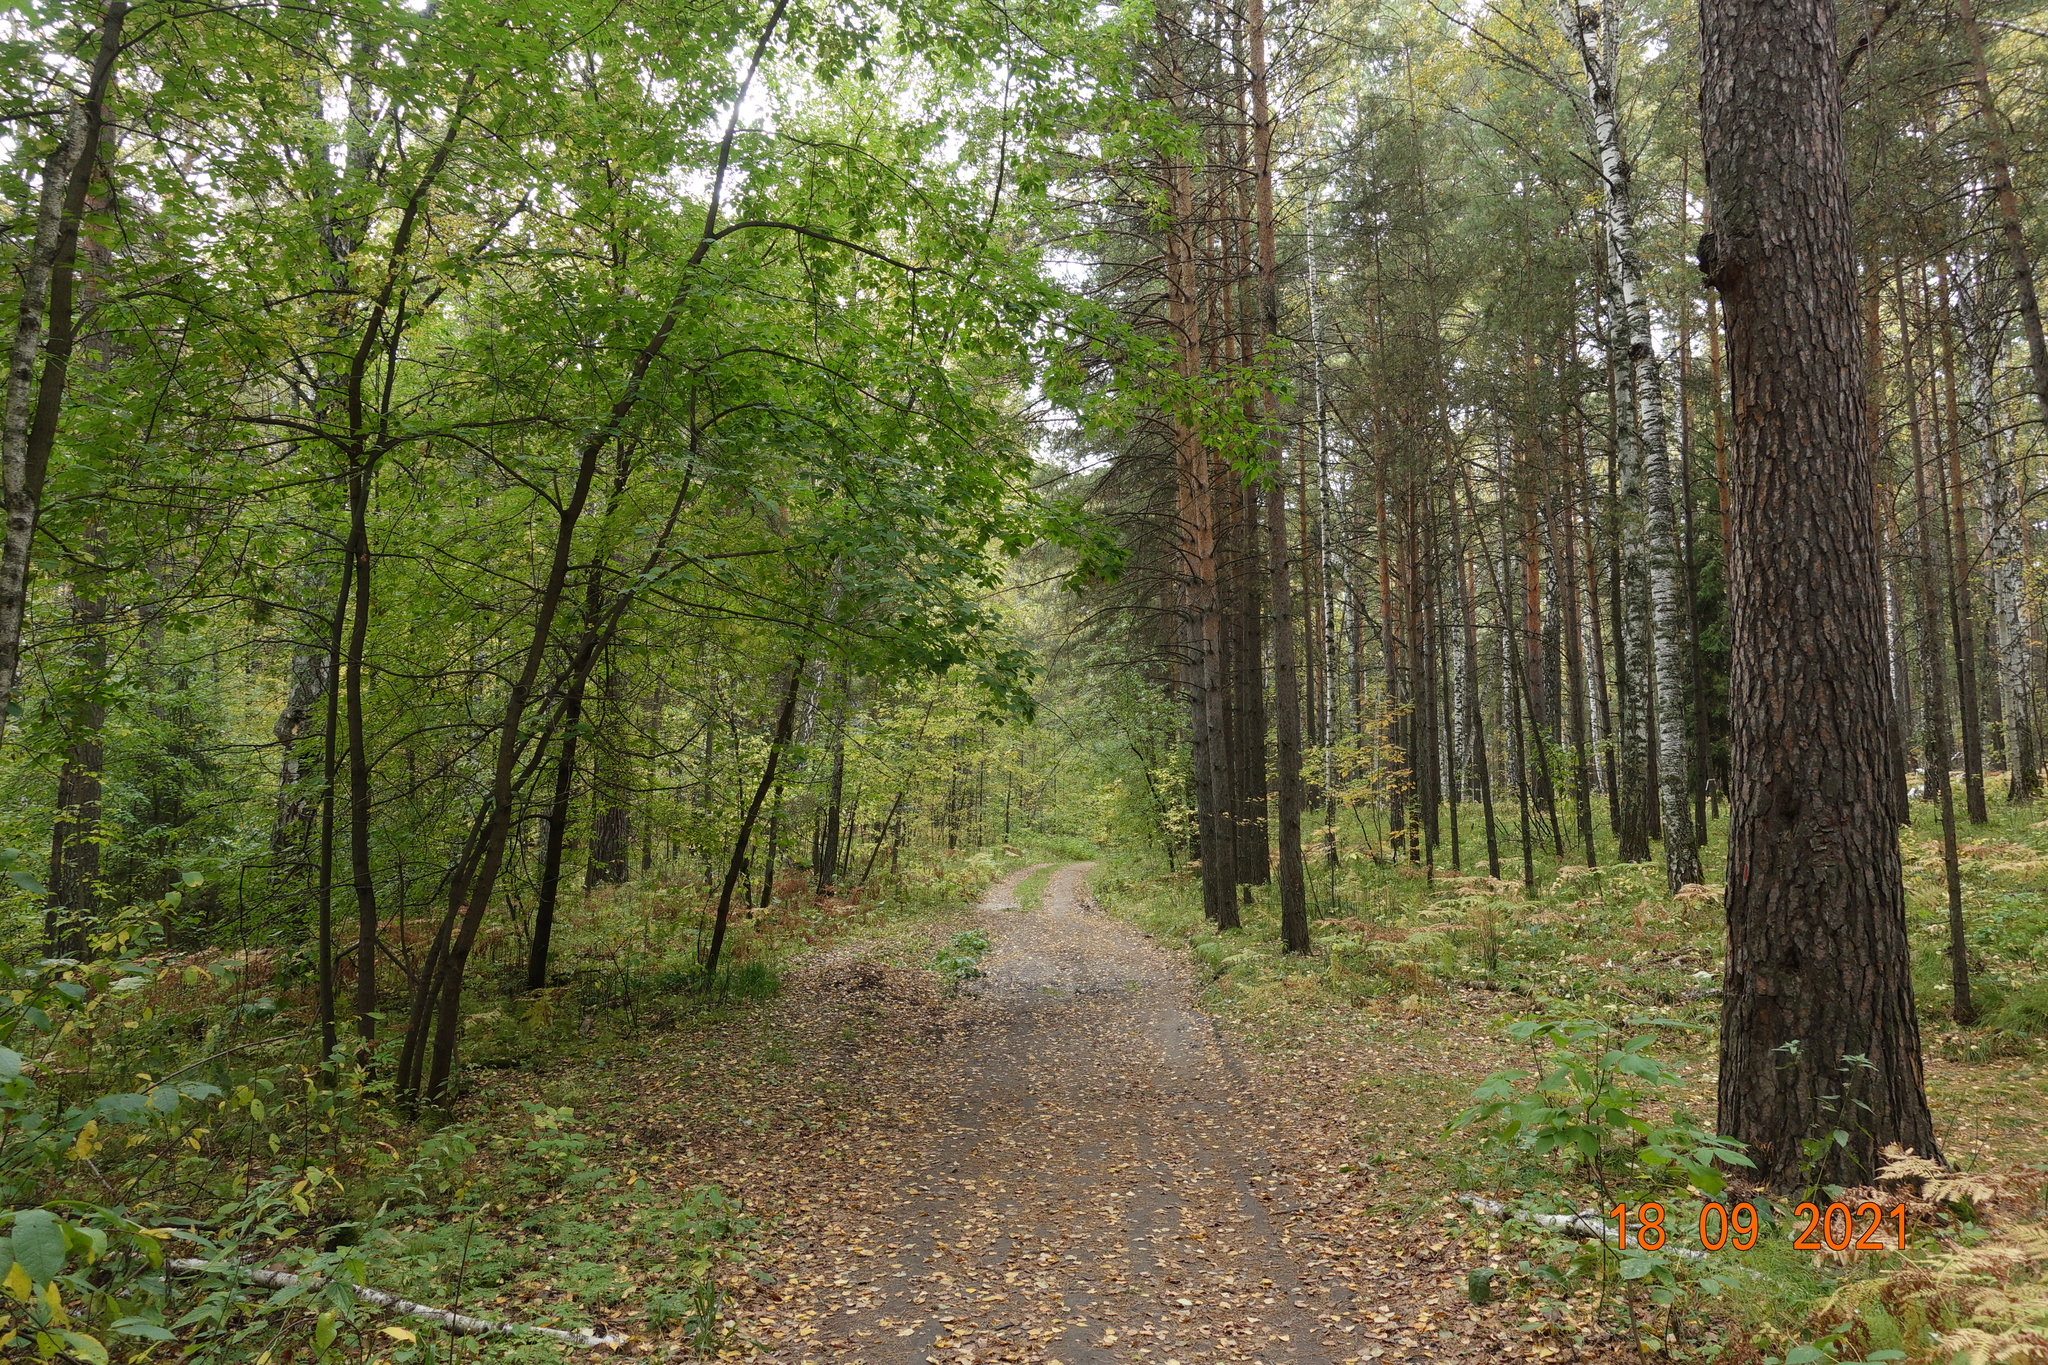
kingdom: Plantae
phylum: Tracheophyta
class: Pinopsida
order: Pinales
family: Pinaceae
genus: Pinus
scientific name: Pinus sylvestris
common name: Scots pine
